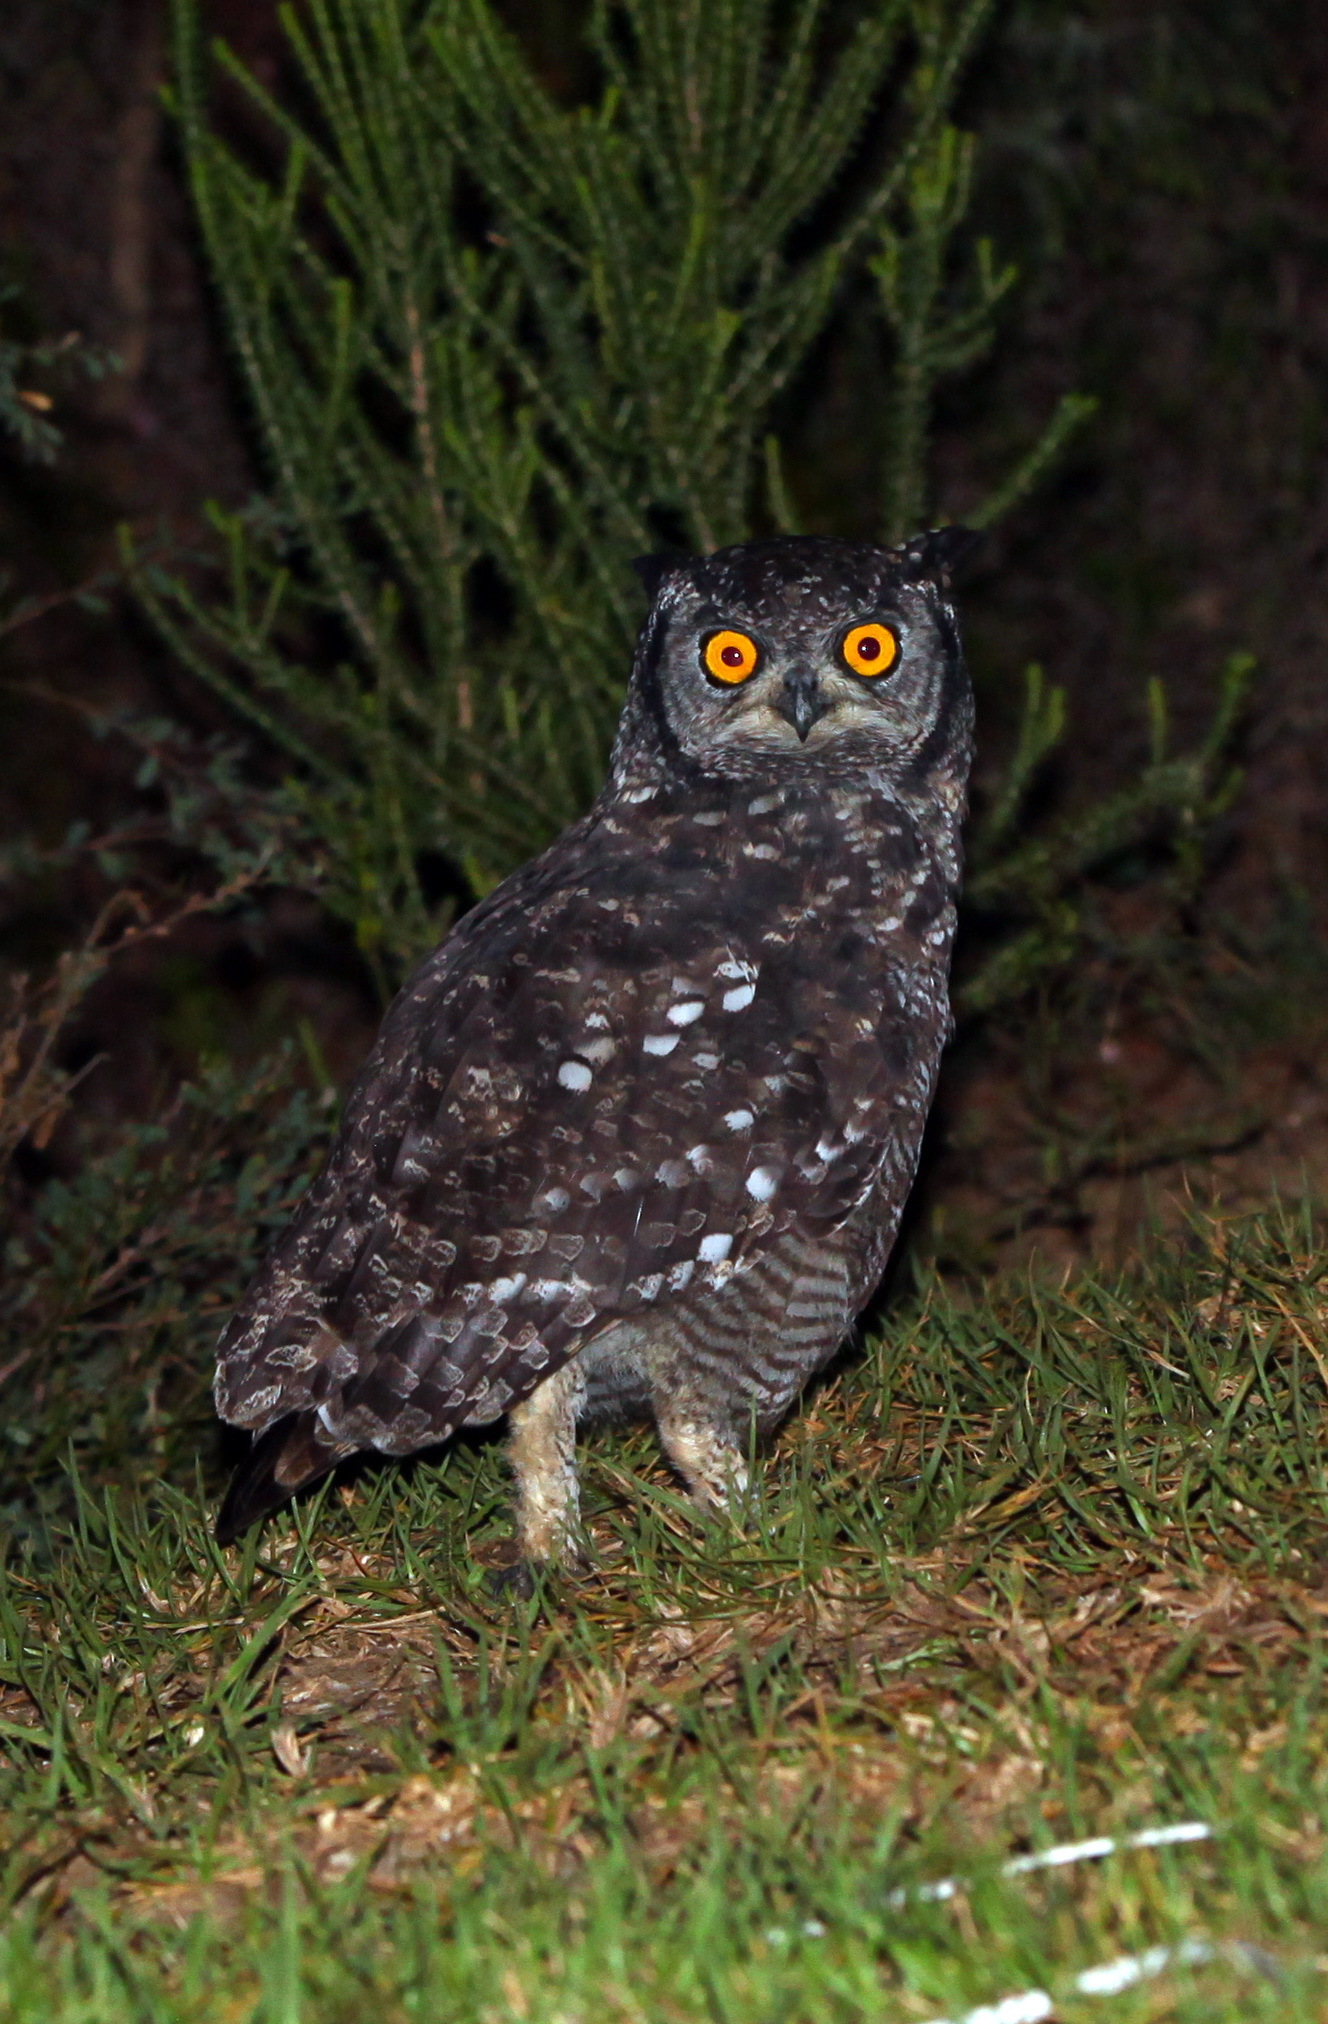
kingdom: Animalia
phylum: Chordata
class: Aves
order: Strigiformes
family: Strigidae
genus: Bubo
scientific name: Bubo africanus
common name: Spotted eagle-owl
